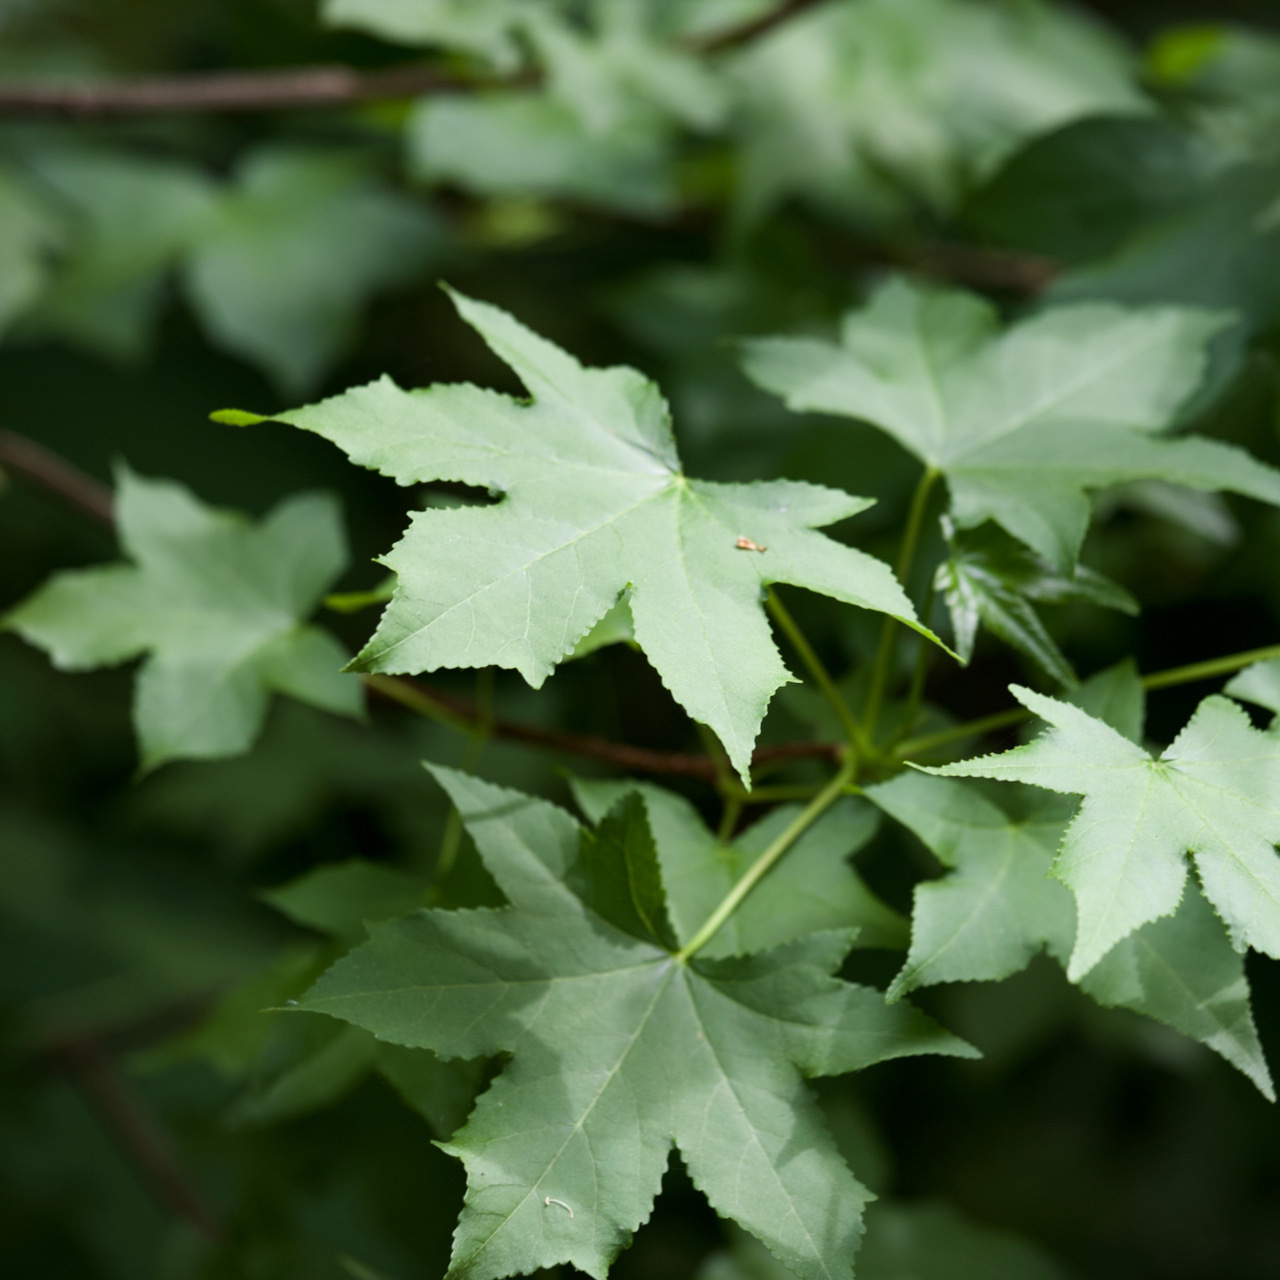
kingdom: Plantae
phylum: Tracheophyta
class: Magnoliopsida
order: Saxifragales
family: Altingiaceae
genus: Liquidambar
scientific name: Liquidambar styraciflua
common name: Sweet gum
